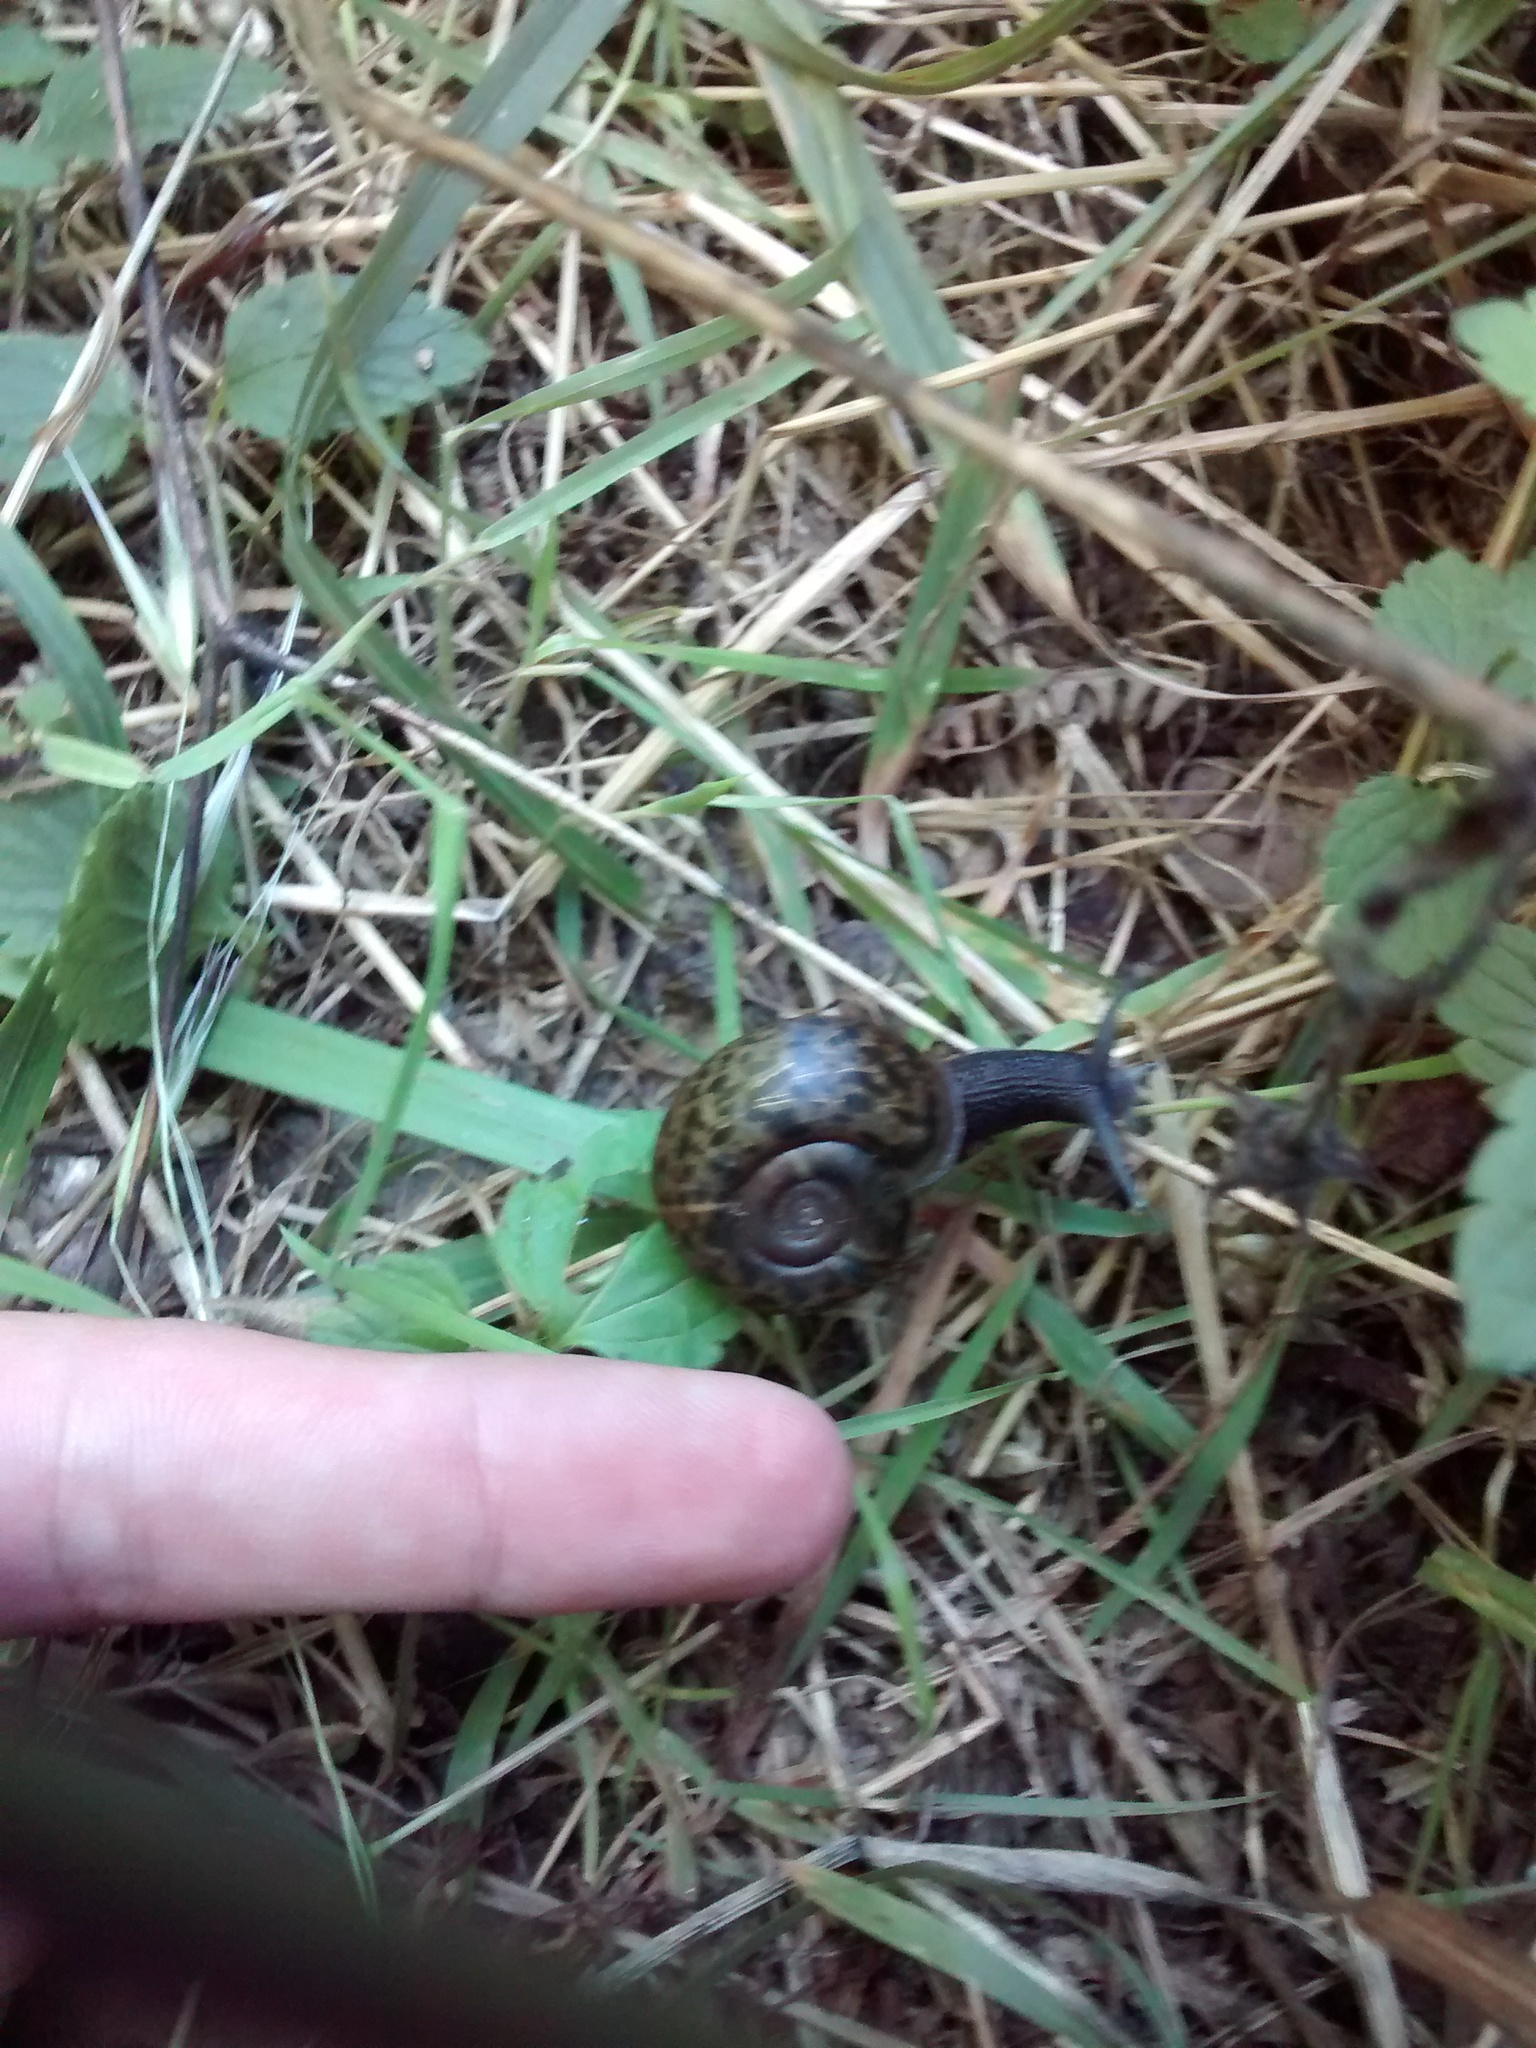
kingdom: Animalia
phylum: Mollusca
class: Gastropoda
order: Stylommatophora
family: Elonidae
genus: Elona
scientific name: Elona quimperiana
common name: Quimper snail
